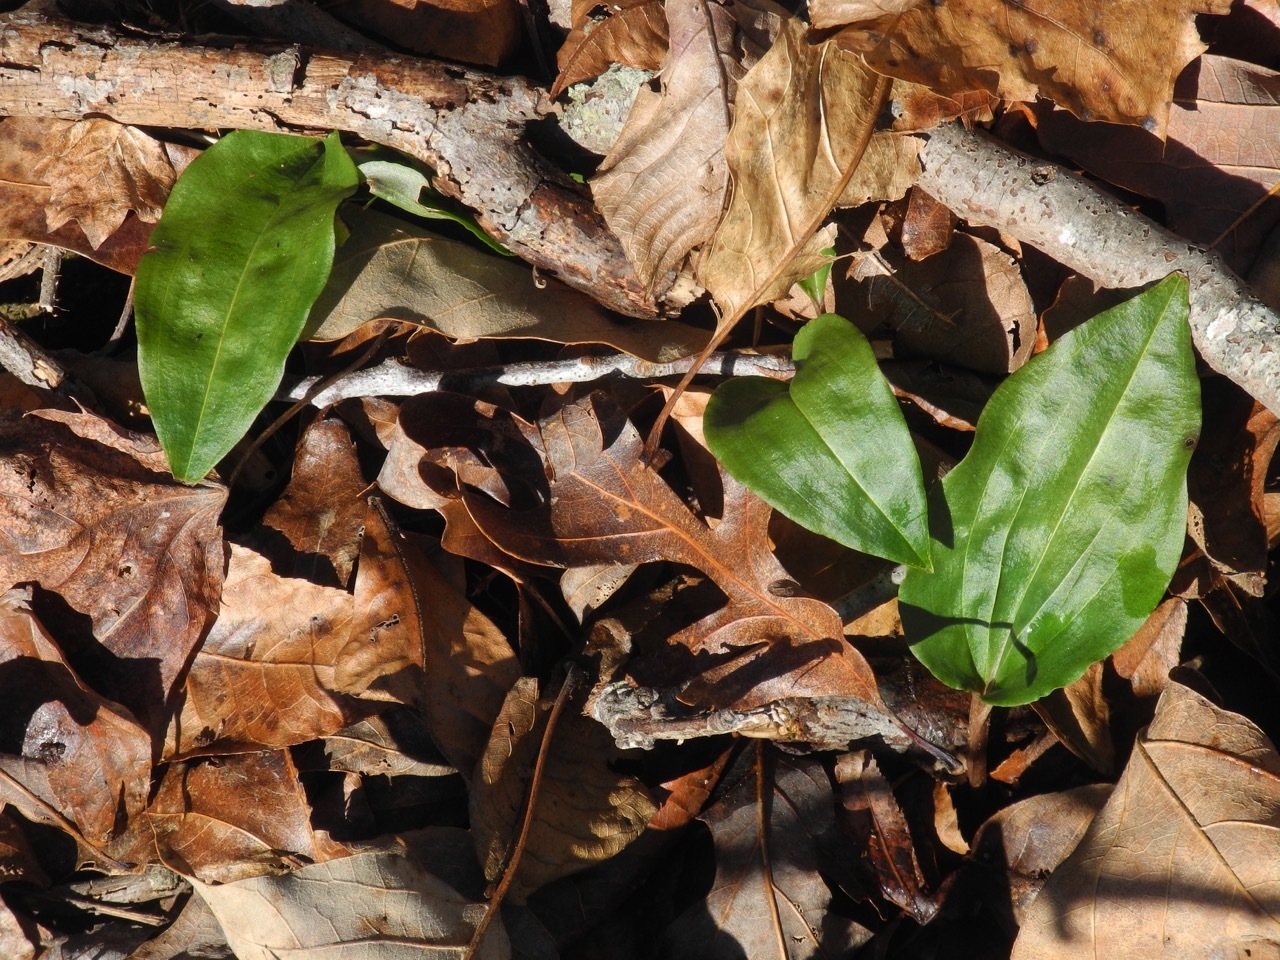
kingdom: Plantae
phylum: Tracheophyta
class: Liliopsida
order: Asparagales
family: Orchidaceae
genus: Tipularia
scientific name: Tipularia discolor
